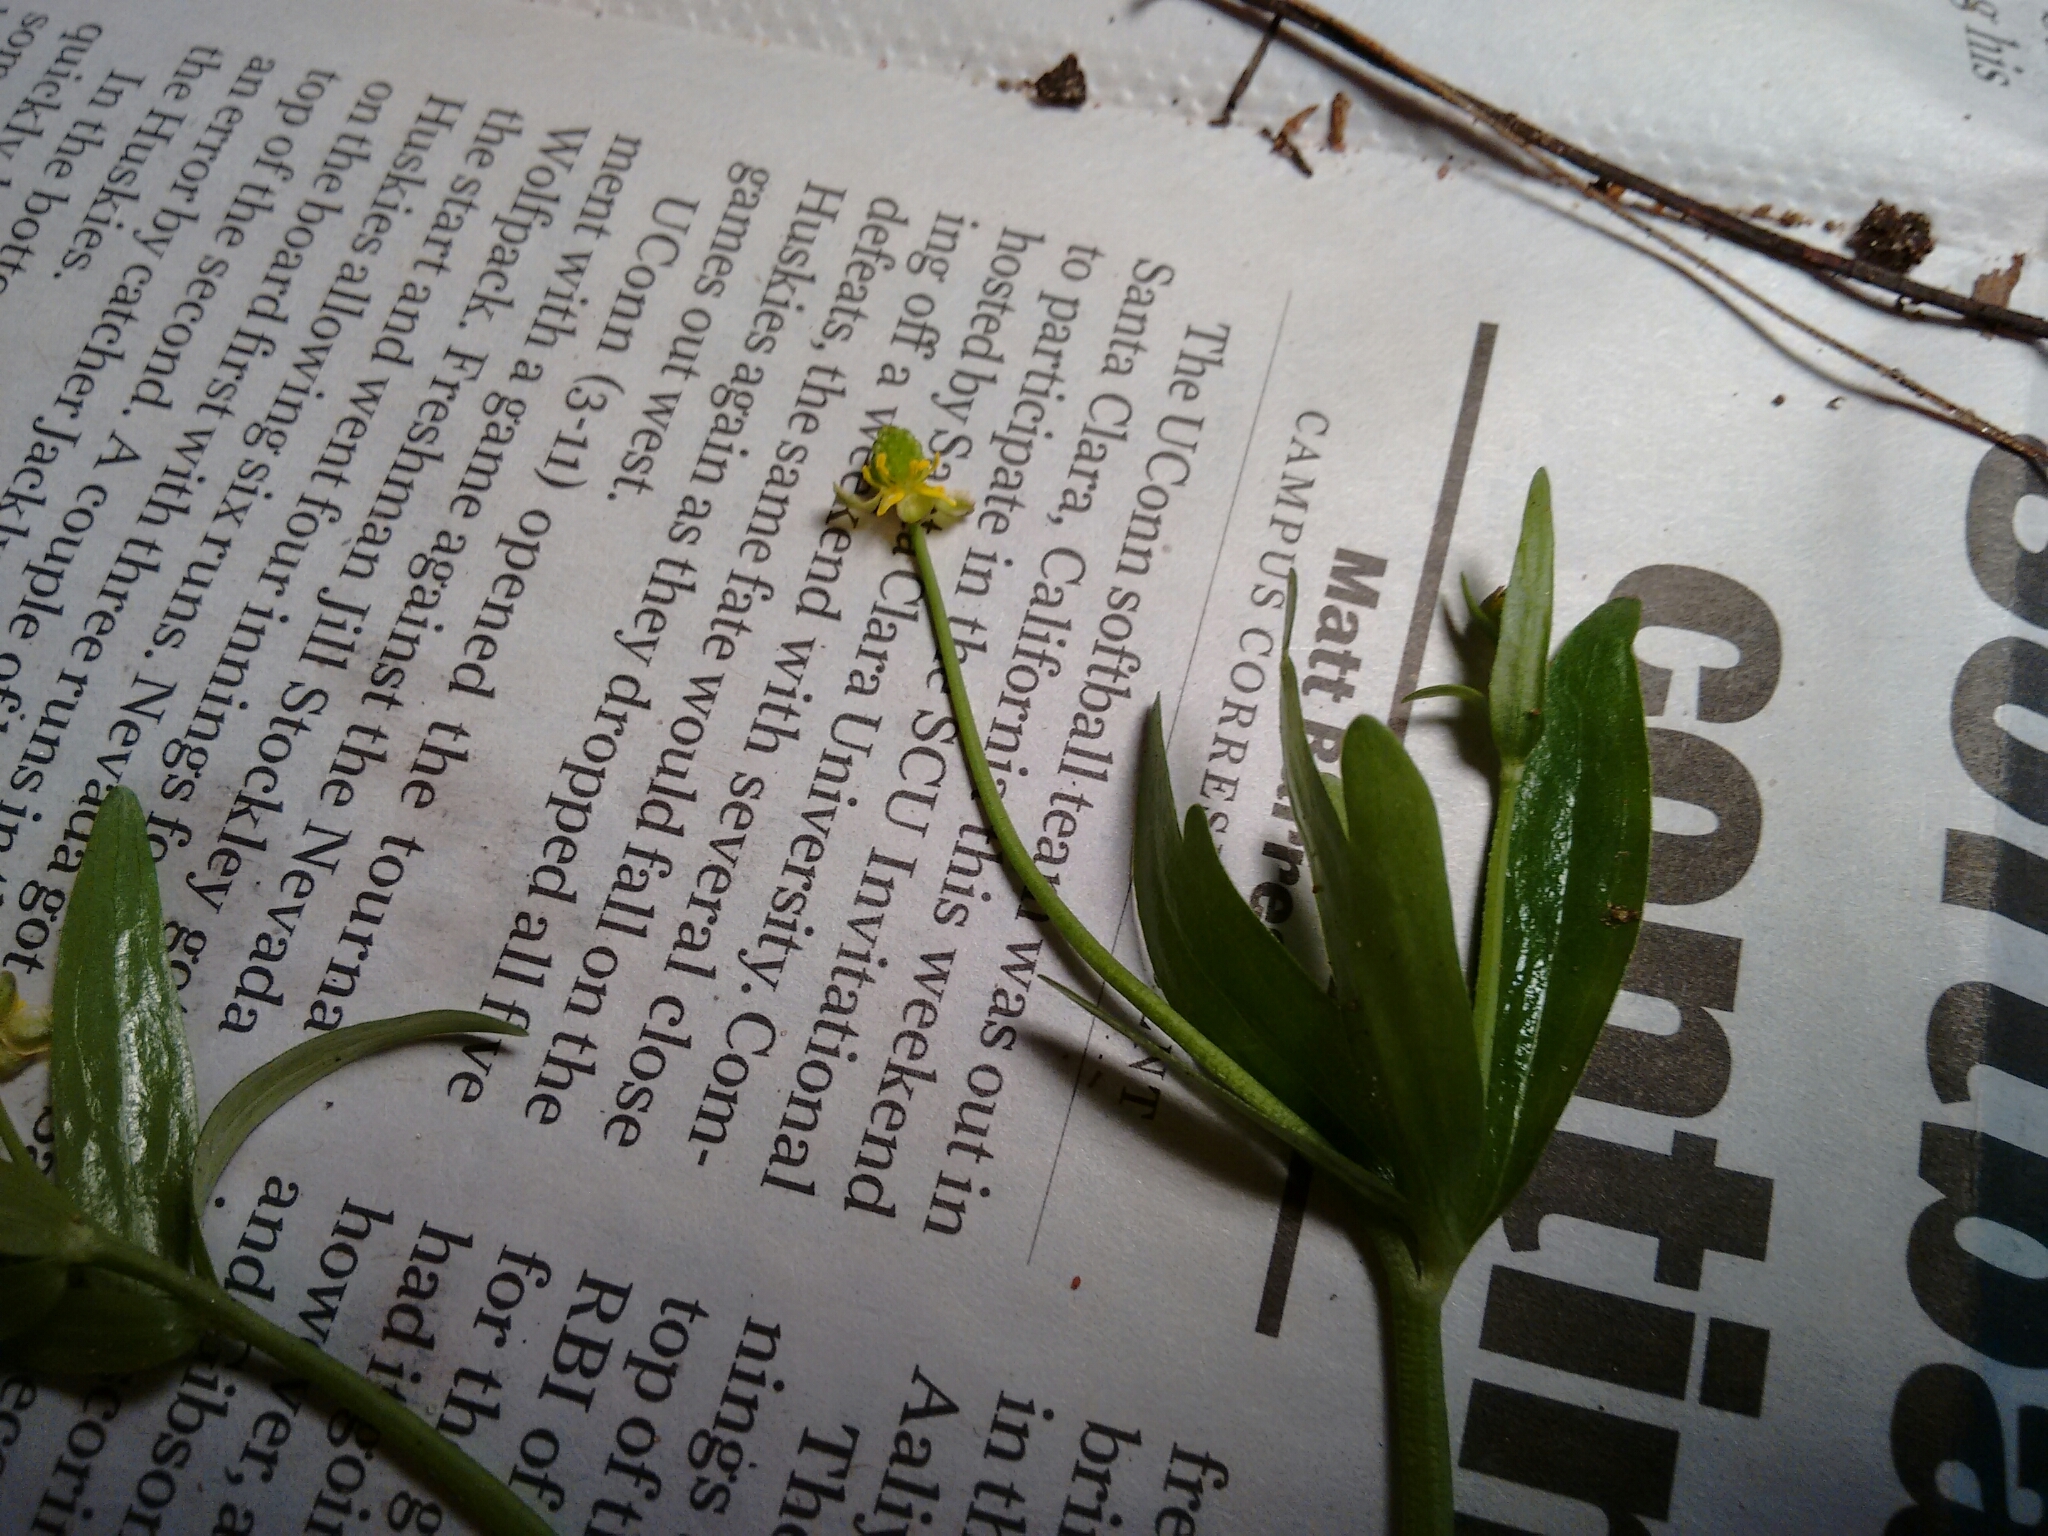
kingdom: Plantae
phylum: Tracheophyta
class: Magnoliopsida
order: Ranunculales
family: Ranunculaceae
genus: Ranunculus
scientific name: Ranunculus abortivus
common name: Early wood buttercup
